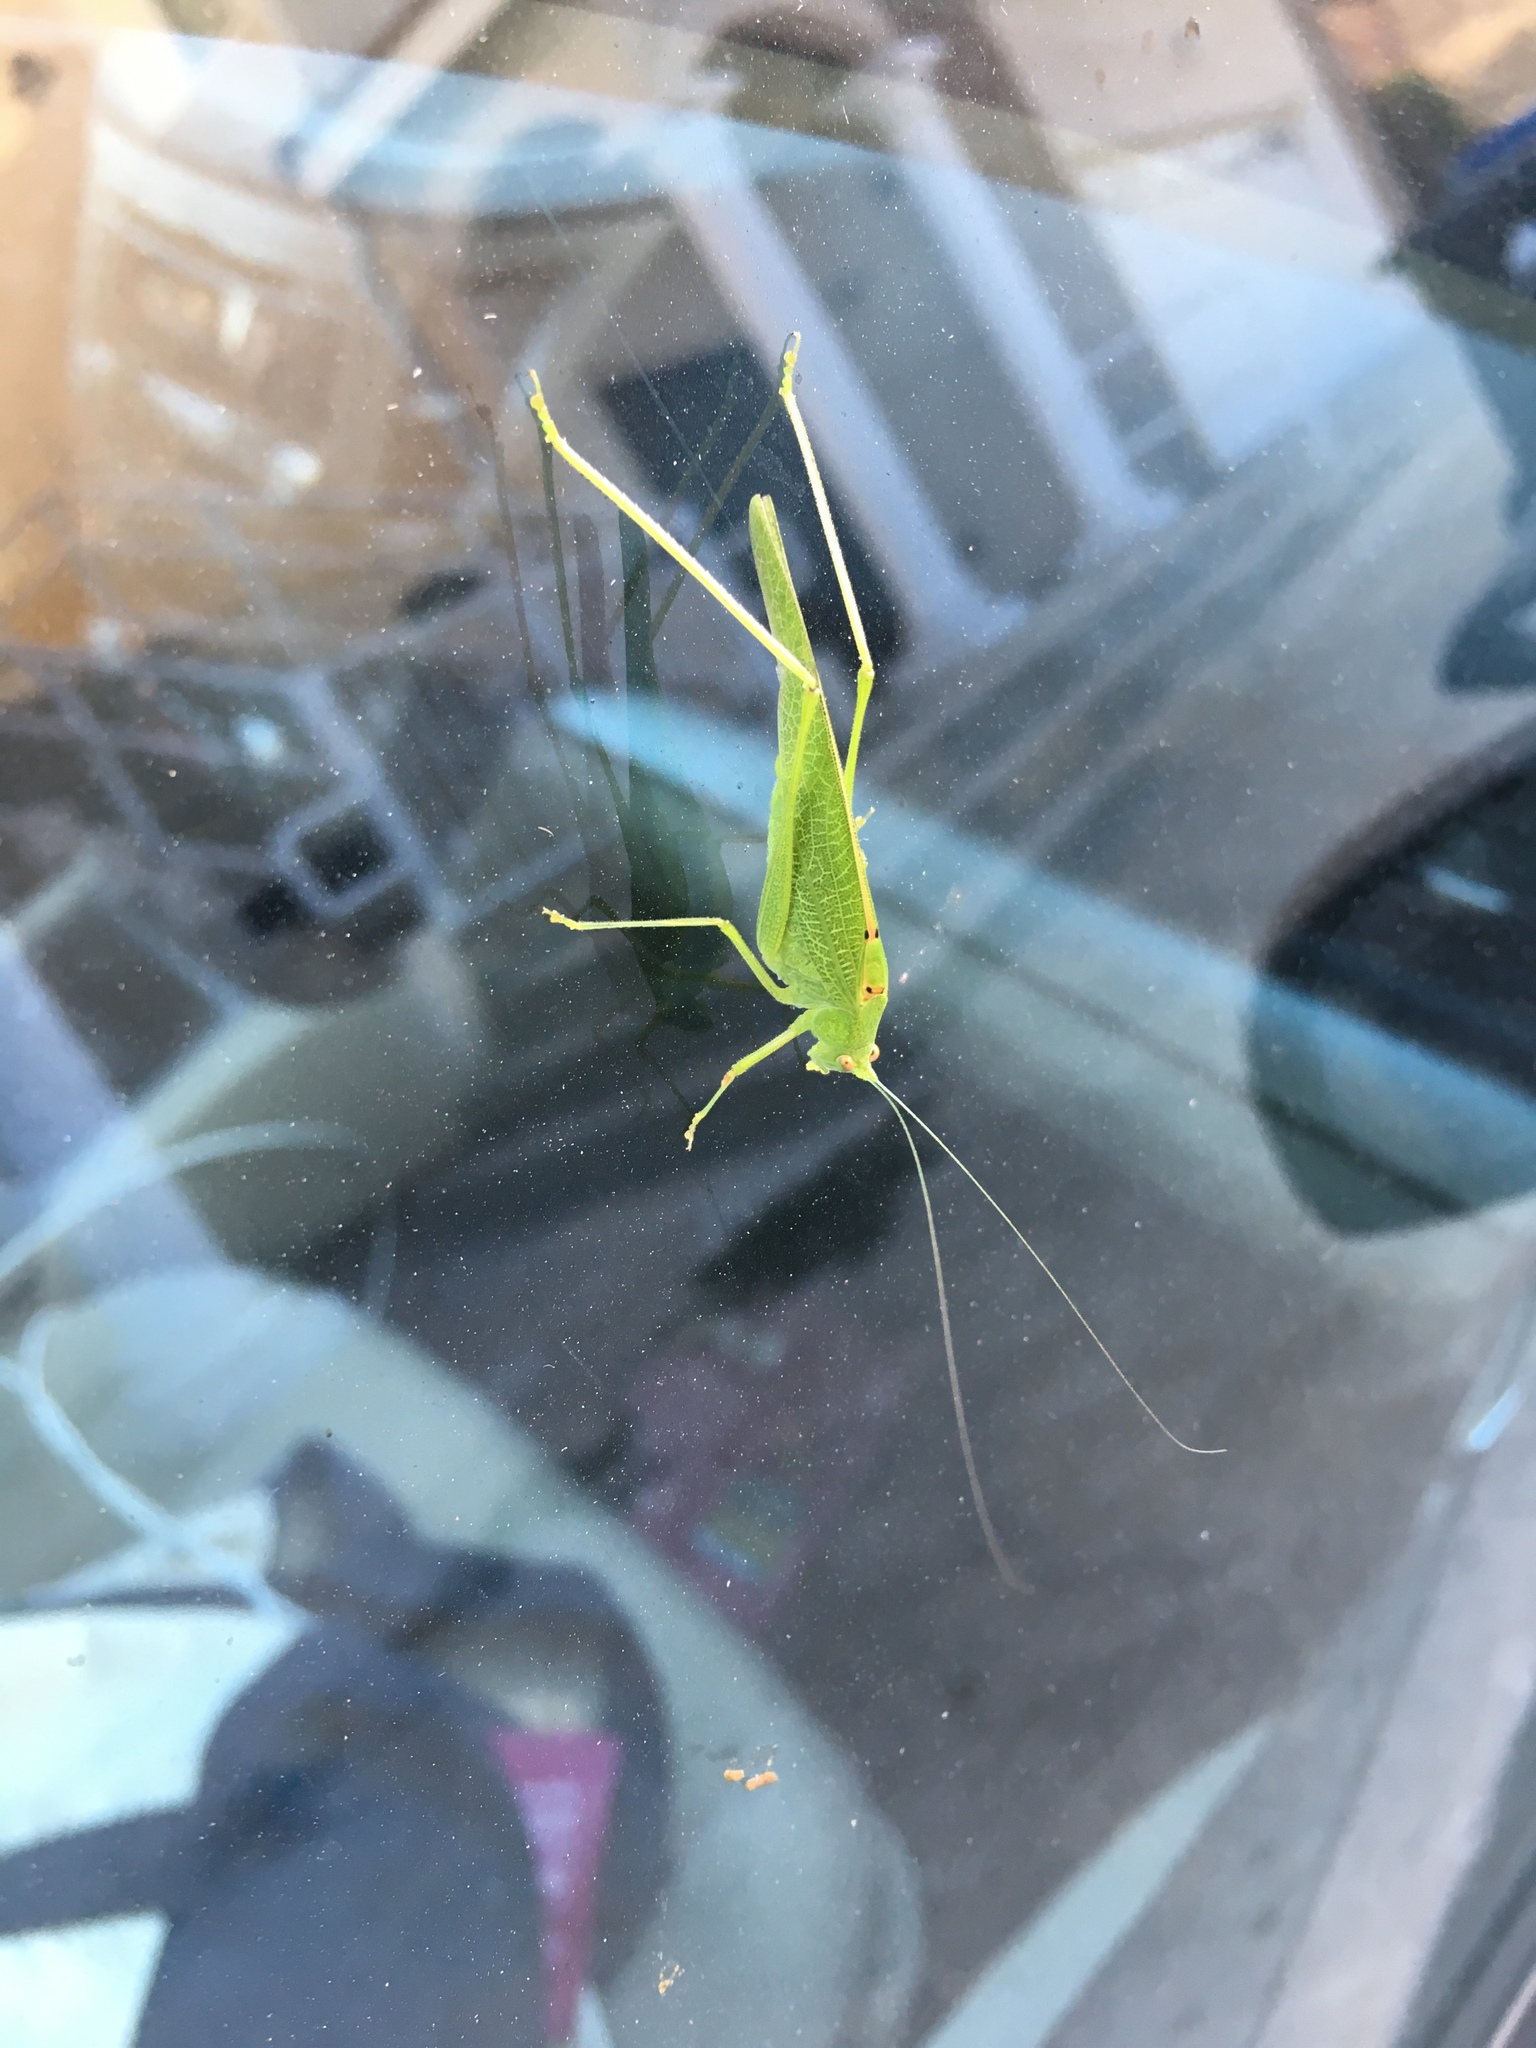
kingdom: Animalia
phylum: Arthropoda
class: Insecta
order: Orthoptera
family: Tettigoniidae
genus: Phaneroptera
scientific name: Phaneroptera nana
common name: Southern sickle bush-cricket
